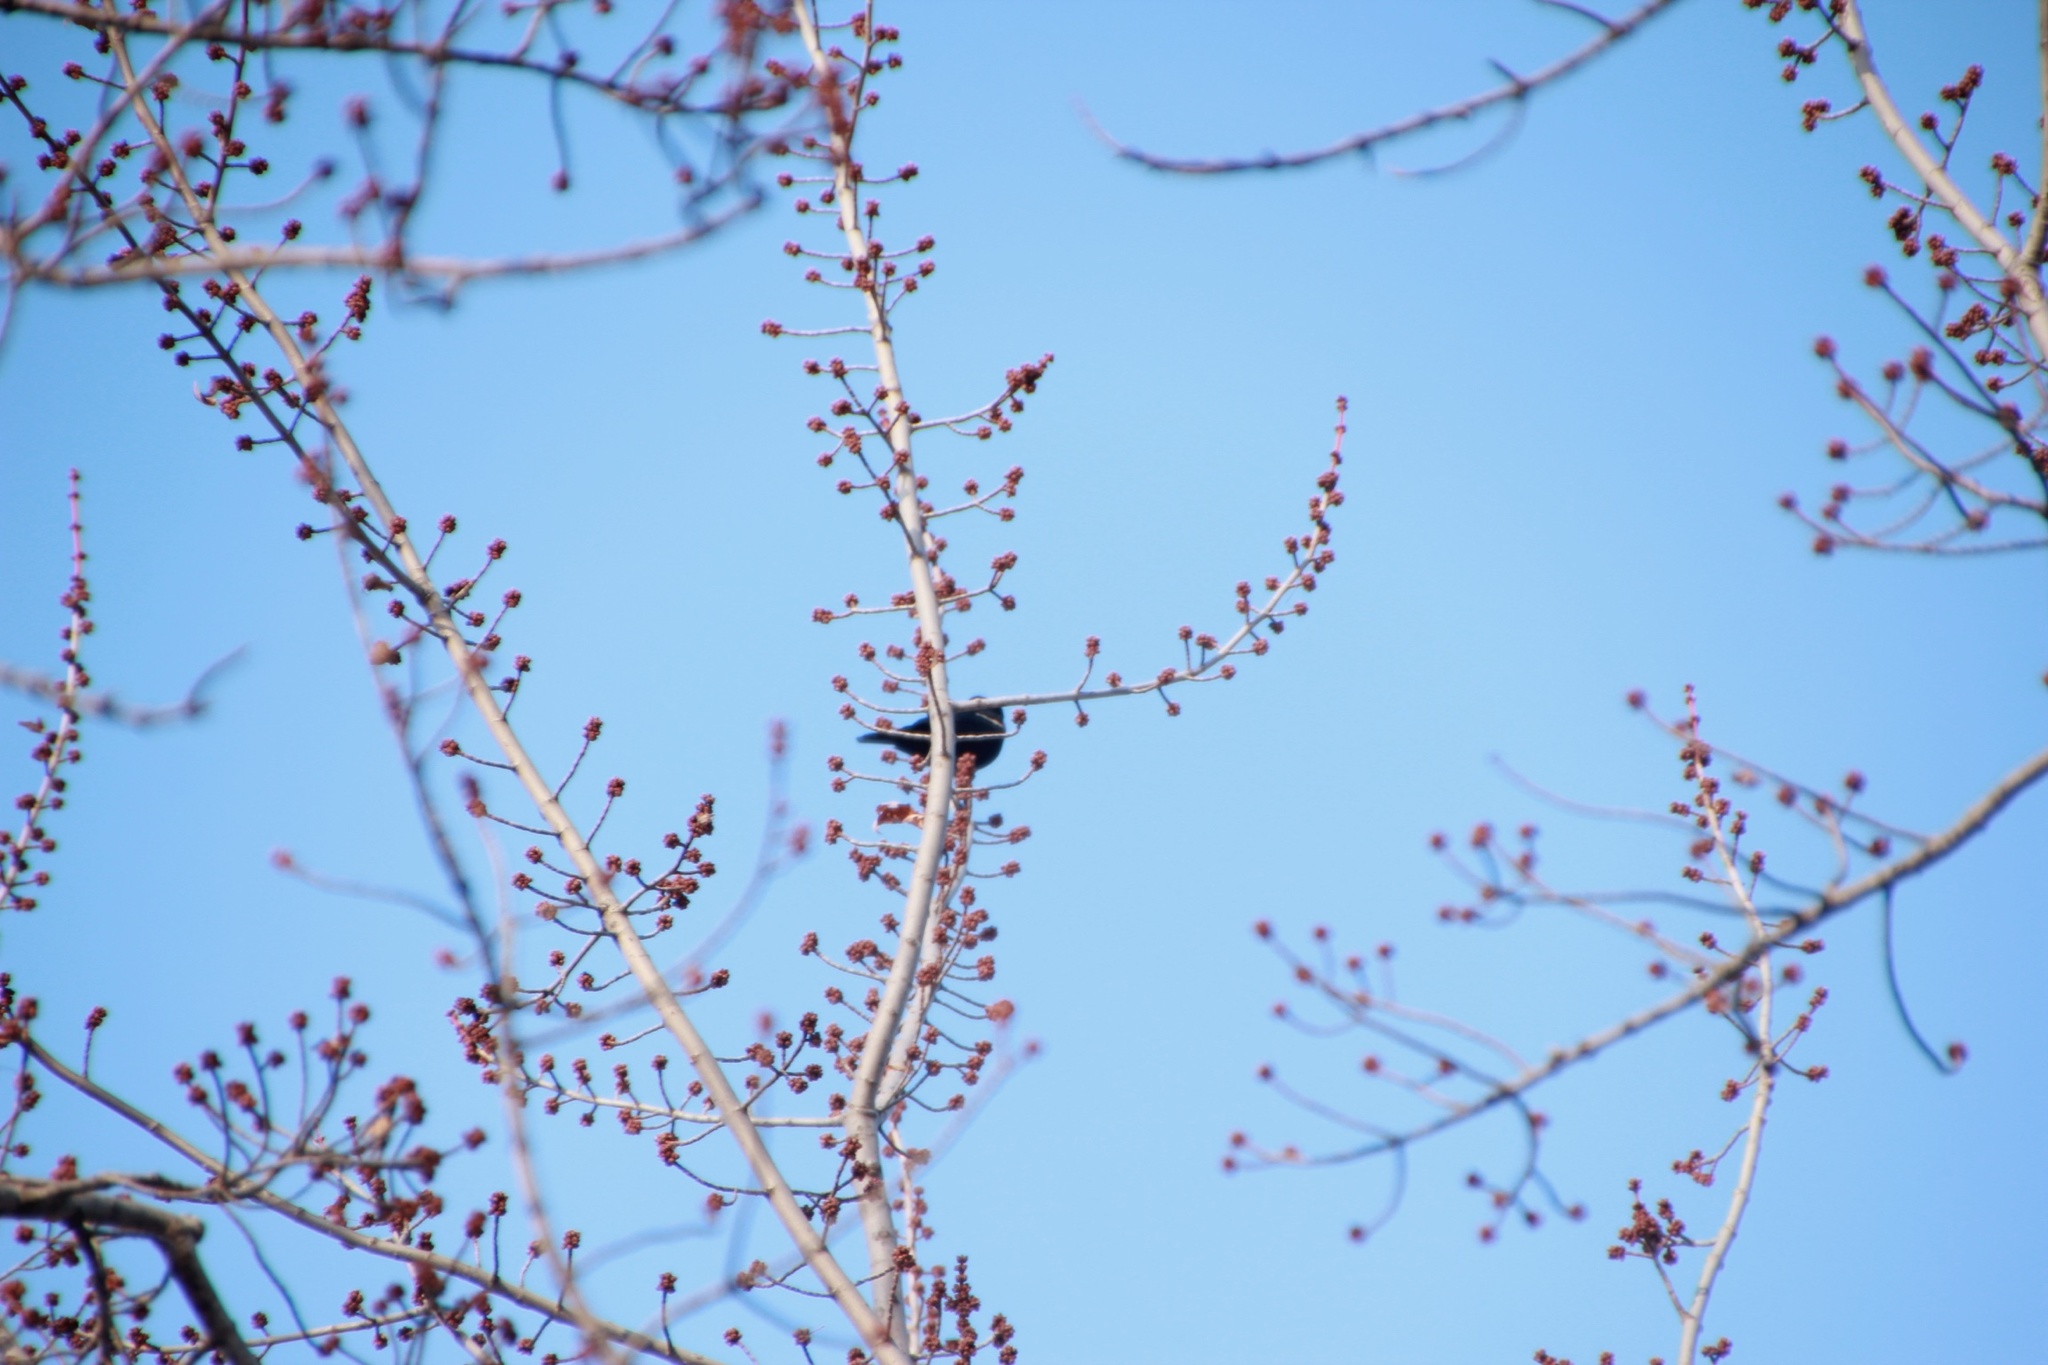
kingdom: Animalia
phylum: Chordata
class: Aves
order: Passeriformes
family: Icteridae
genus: Agelaius
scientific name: Agelaius phoeniceus
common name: Red-winged blackbird
